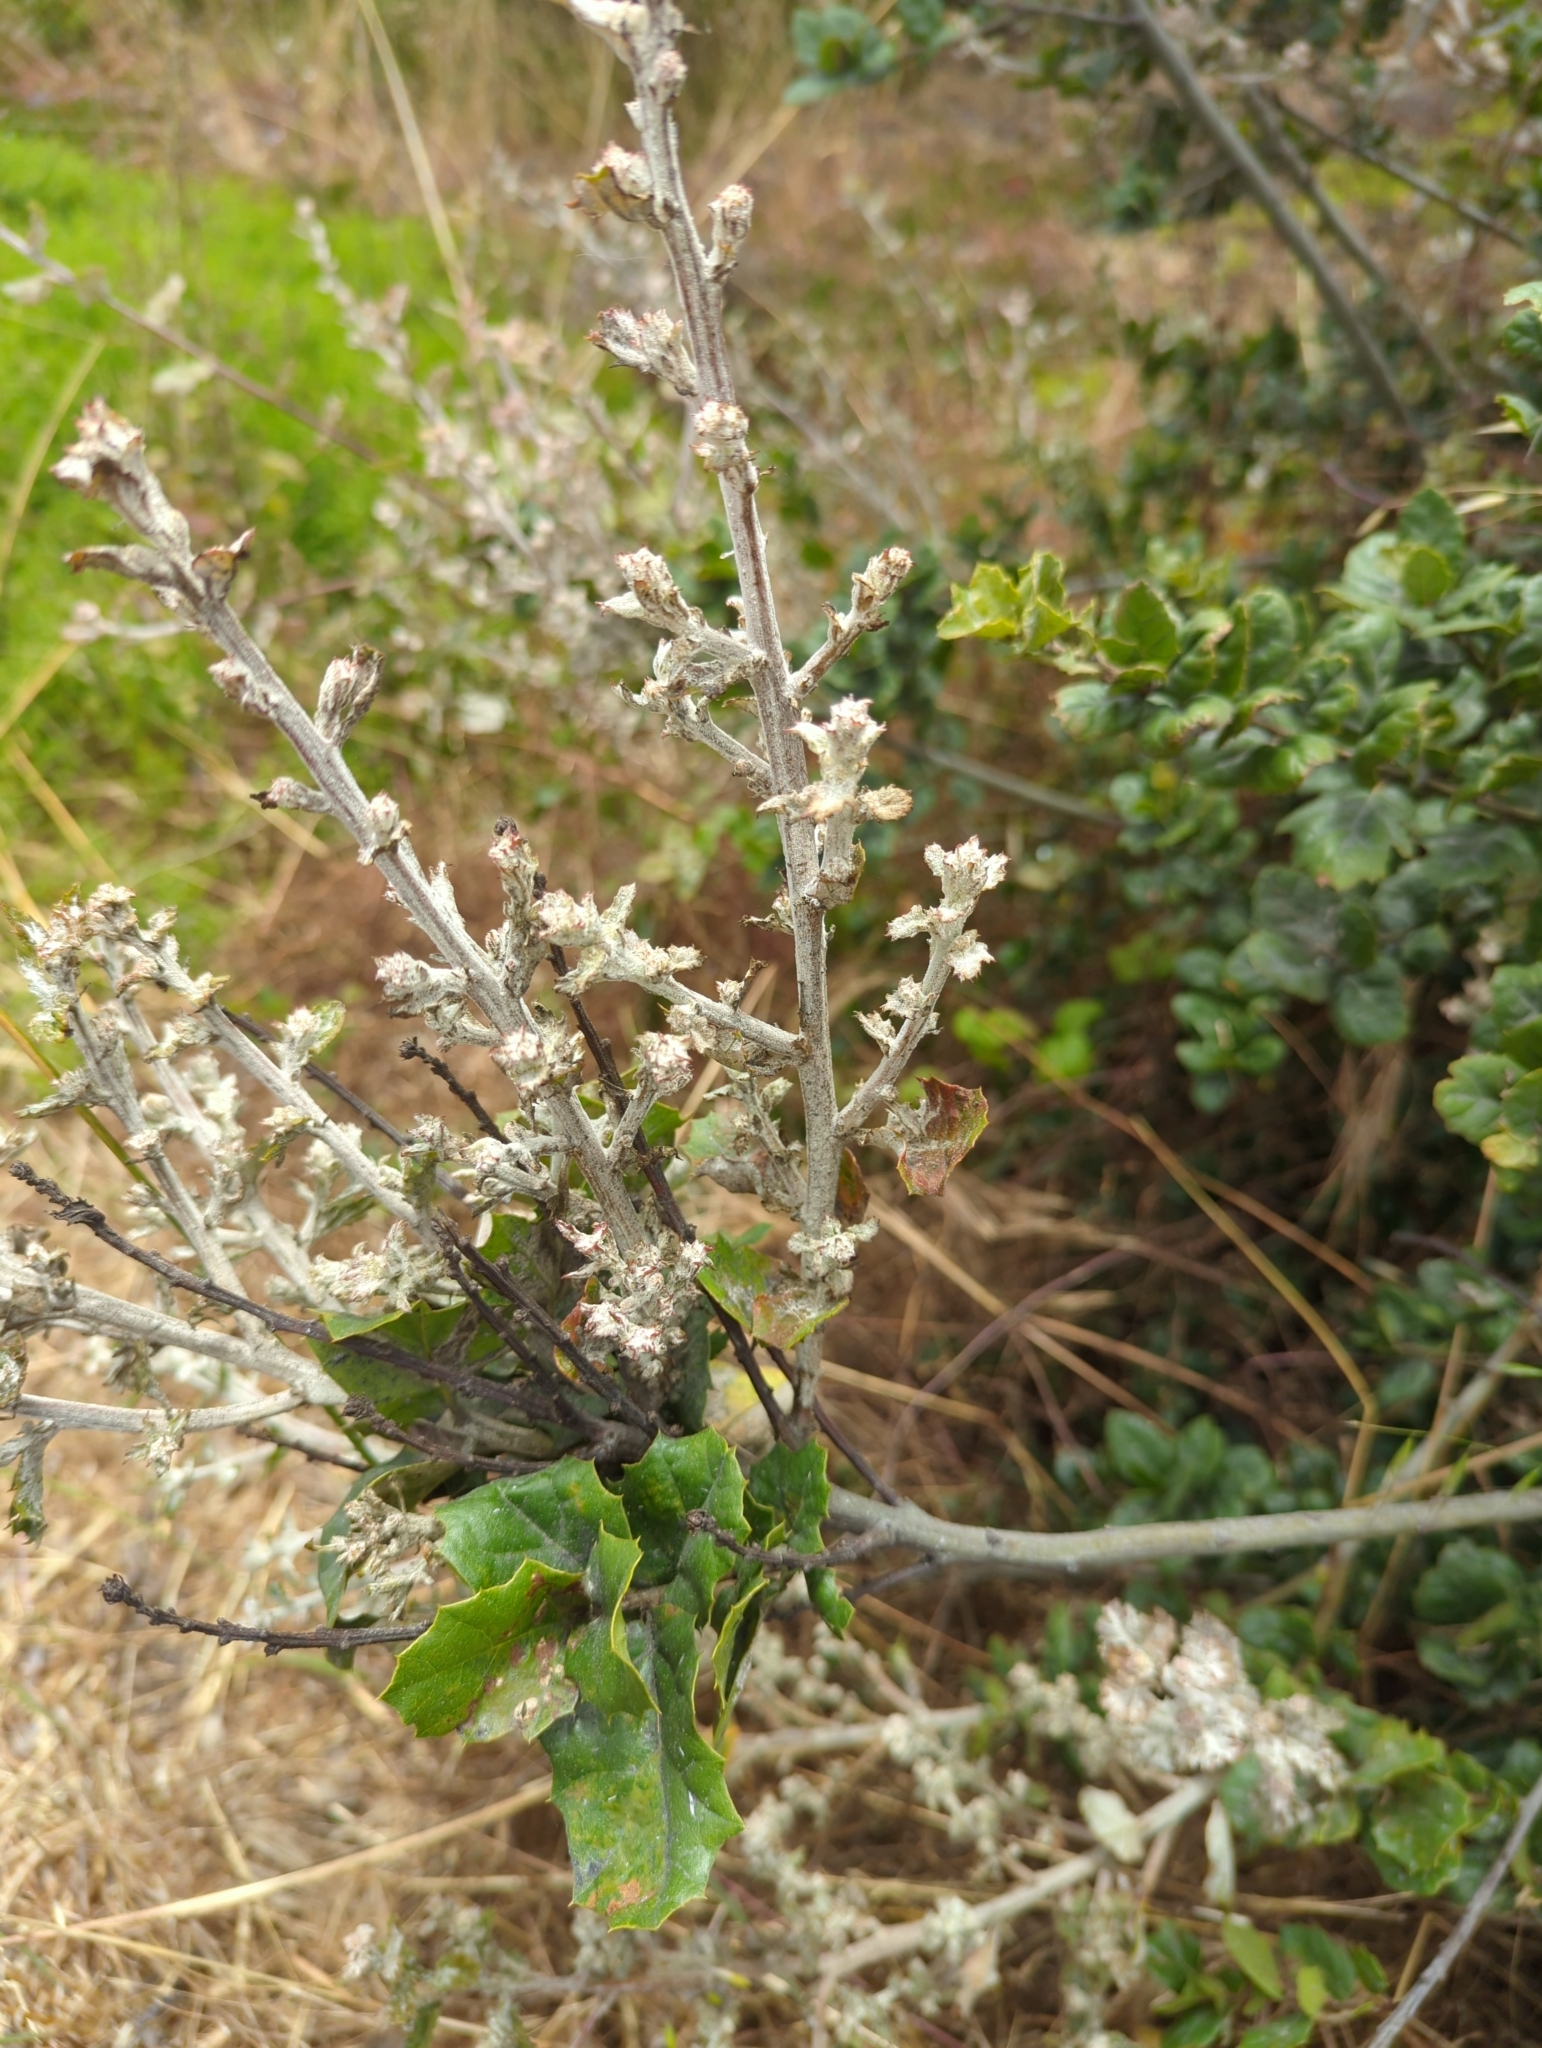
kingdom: Fungi
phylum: Ascomycota
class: Leotiomycetes
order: Helotiales
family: Erysiphaceae
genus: Cystotheca
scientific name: Cystotheca lanestris
